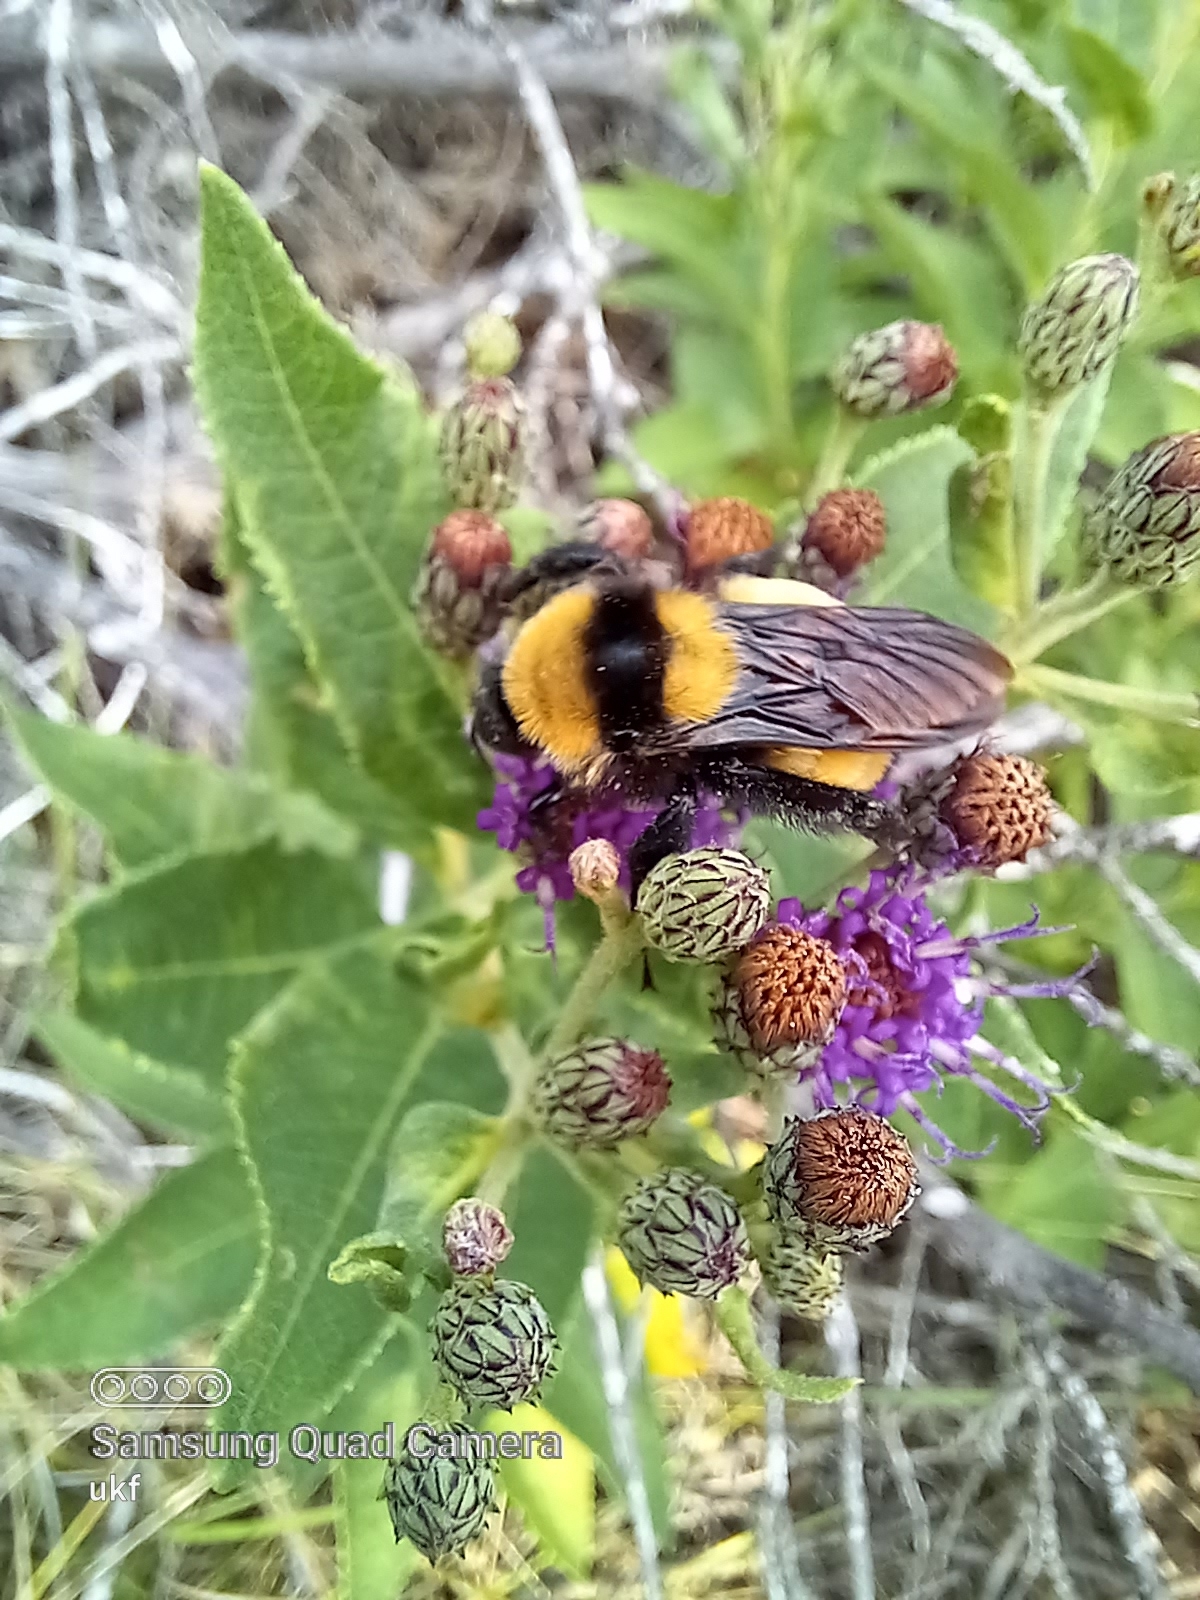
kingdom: Animalia
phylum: Arthropoda
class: Insecta
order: Hymenoptera
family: Apidae
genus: Bombus
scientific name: Bombus sonorus
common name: Sonoran bumble bee
